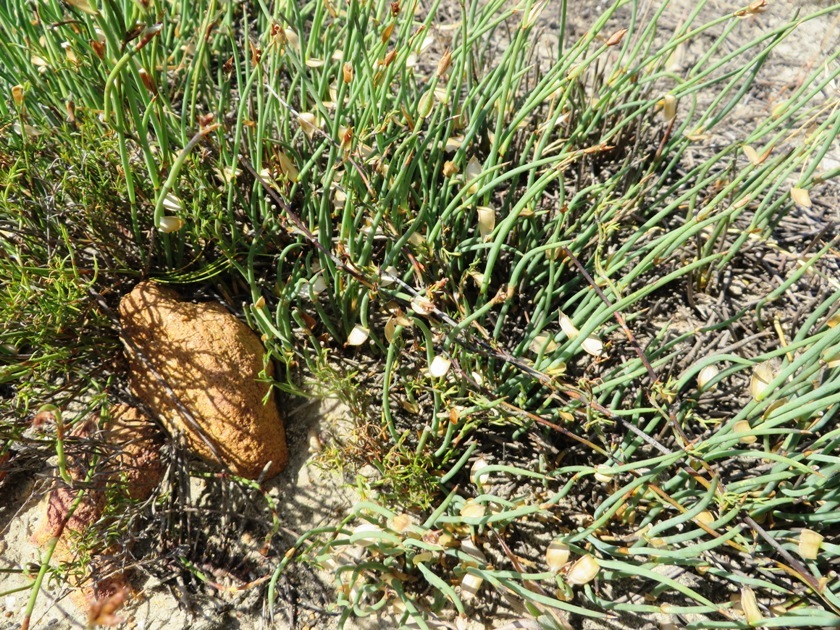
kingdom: Plantae
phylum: Tracheophyta
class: Liliopsida
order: Poales
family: Restionaceae
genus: Elegia
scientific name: Elegia verreauxii
